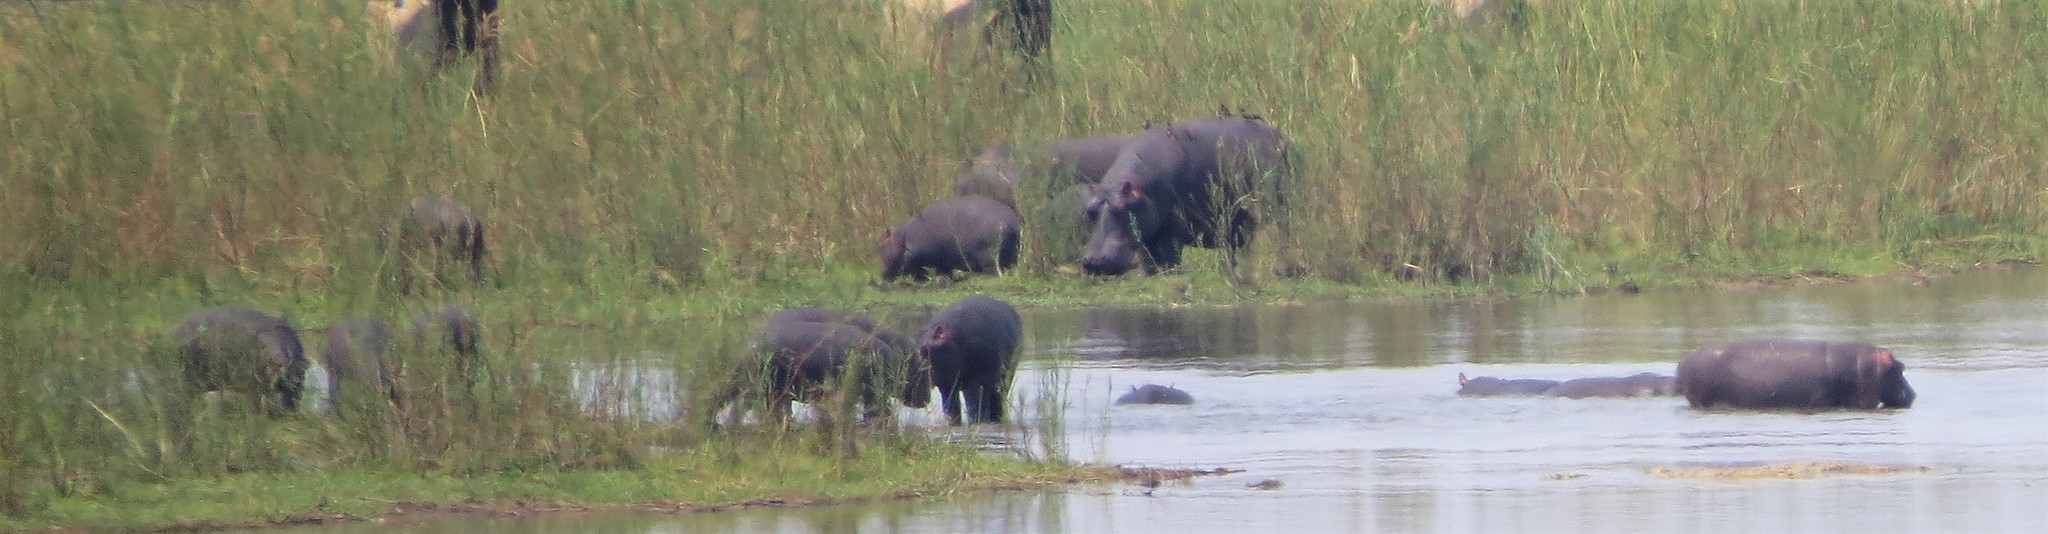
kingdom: Animalia
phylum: Chordata
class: Mammalia
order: Artiodactyla
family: Hippopotamidae
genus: Hippopotamus
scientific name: Hippopotamus amphibius
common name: Common hippopotamus
